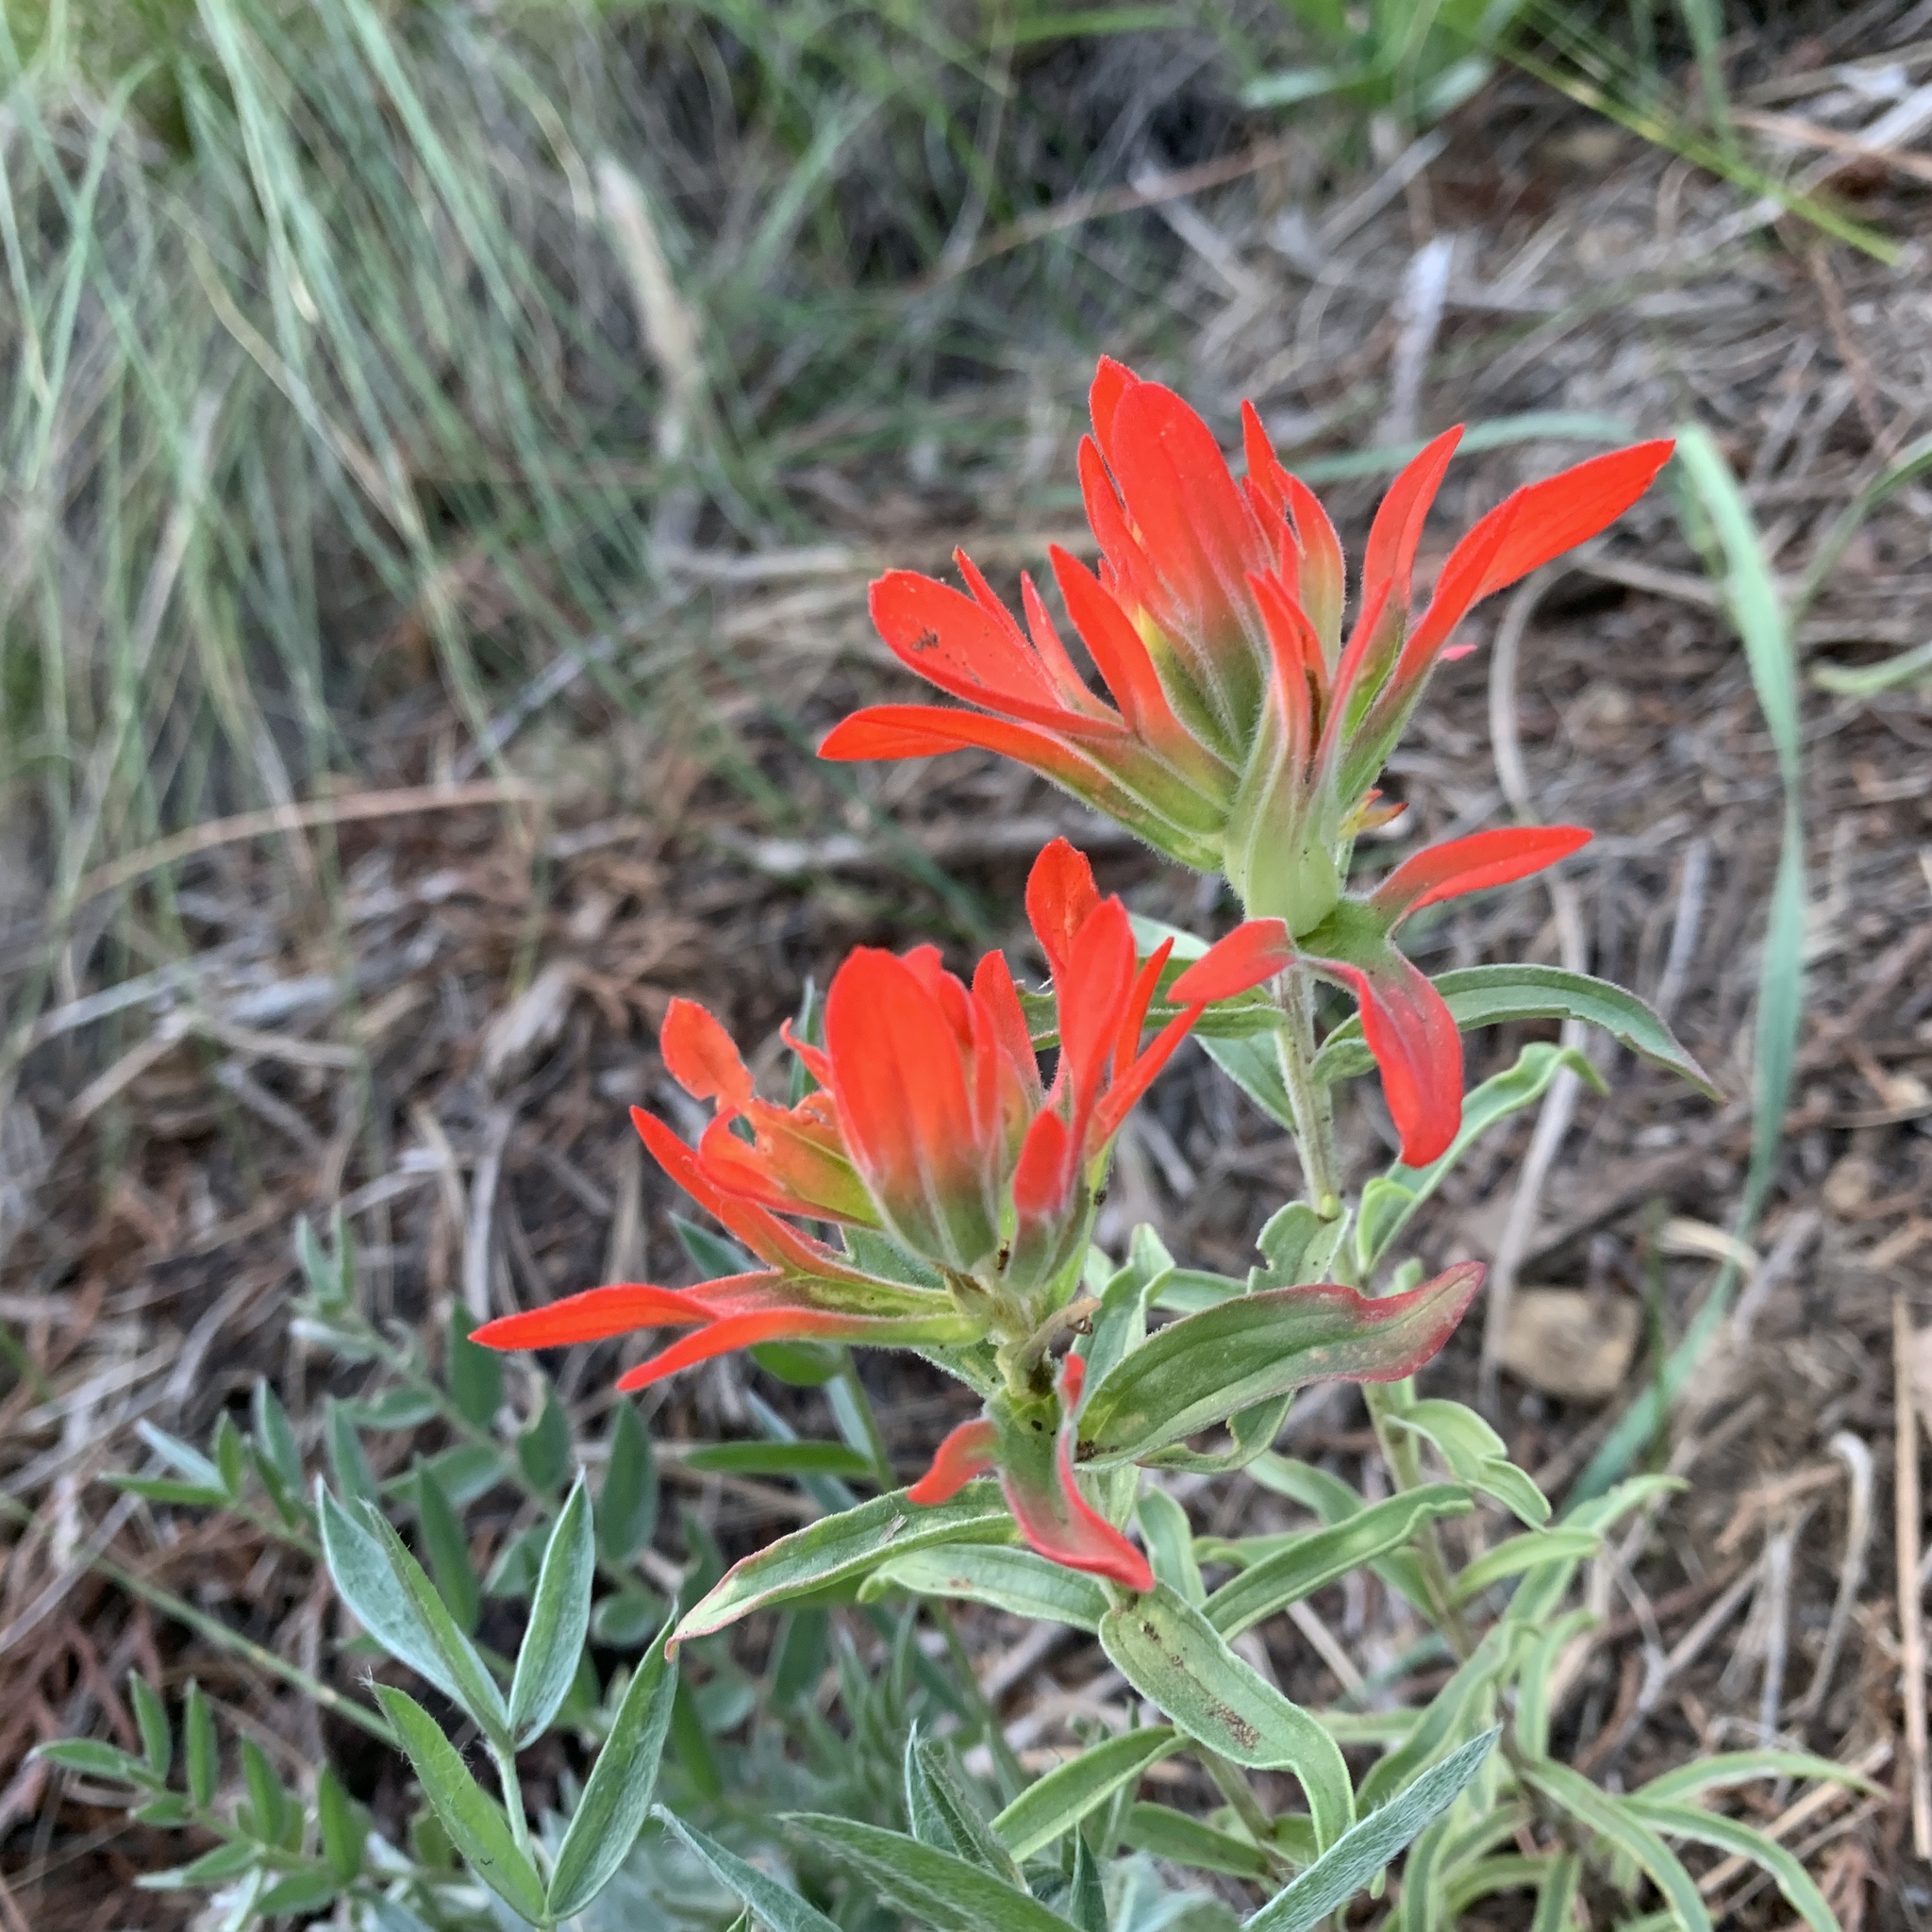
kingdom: Plantae
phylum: Tracheophyta
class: Magnoliopsida
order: Lamiales
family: Orobanchaceae
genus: Castilleja
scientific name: Castilleja integra
